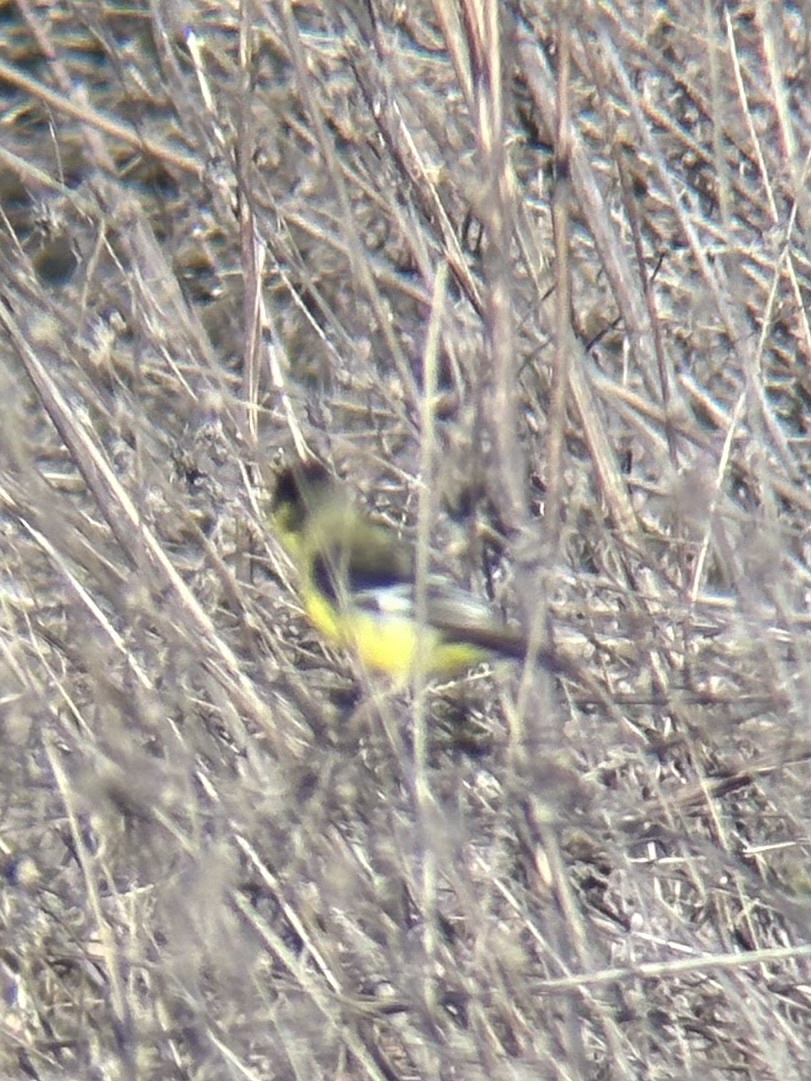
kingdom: Animalia
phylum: Chordata
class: Aves
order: Passeriformes
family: Fringillidae
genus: Spinus
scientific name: Spinus psaltria
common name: Lesser goldfinch
